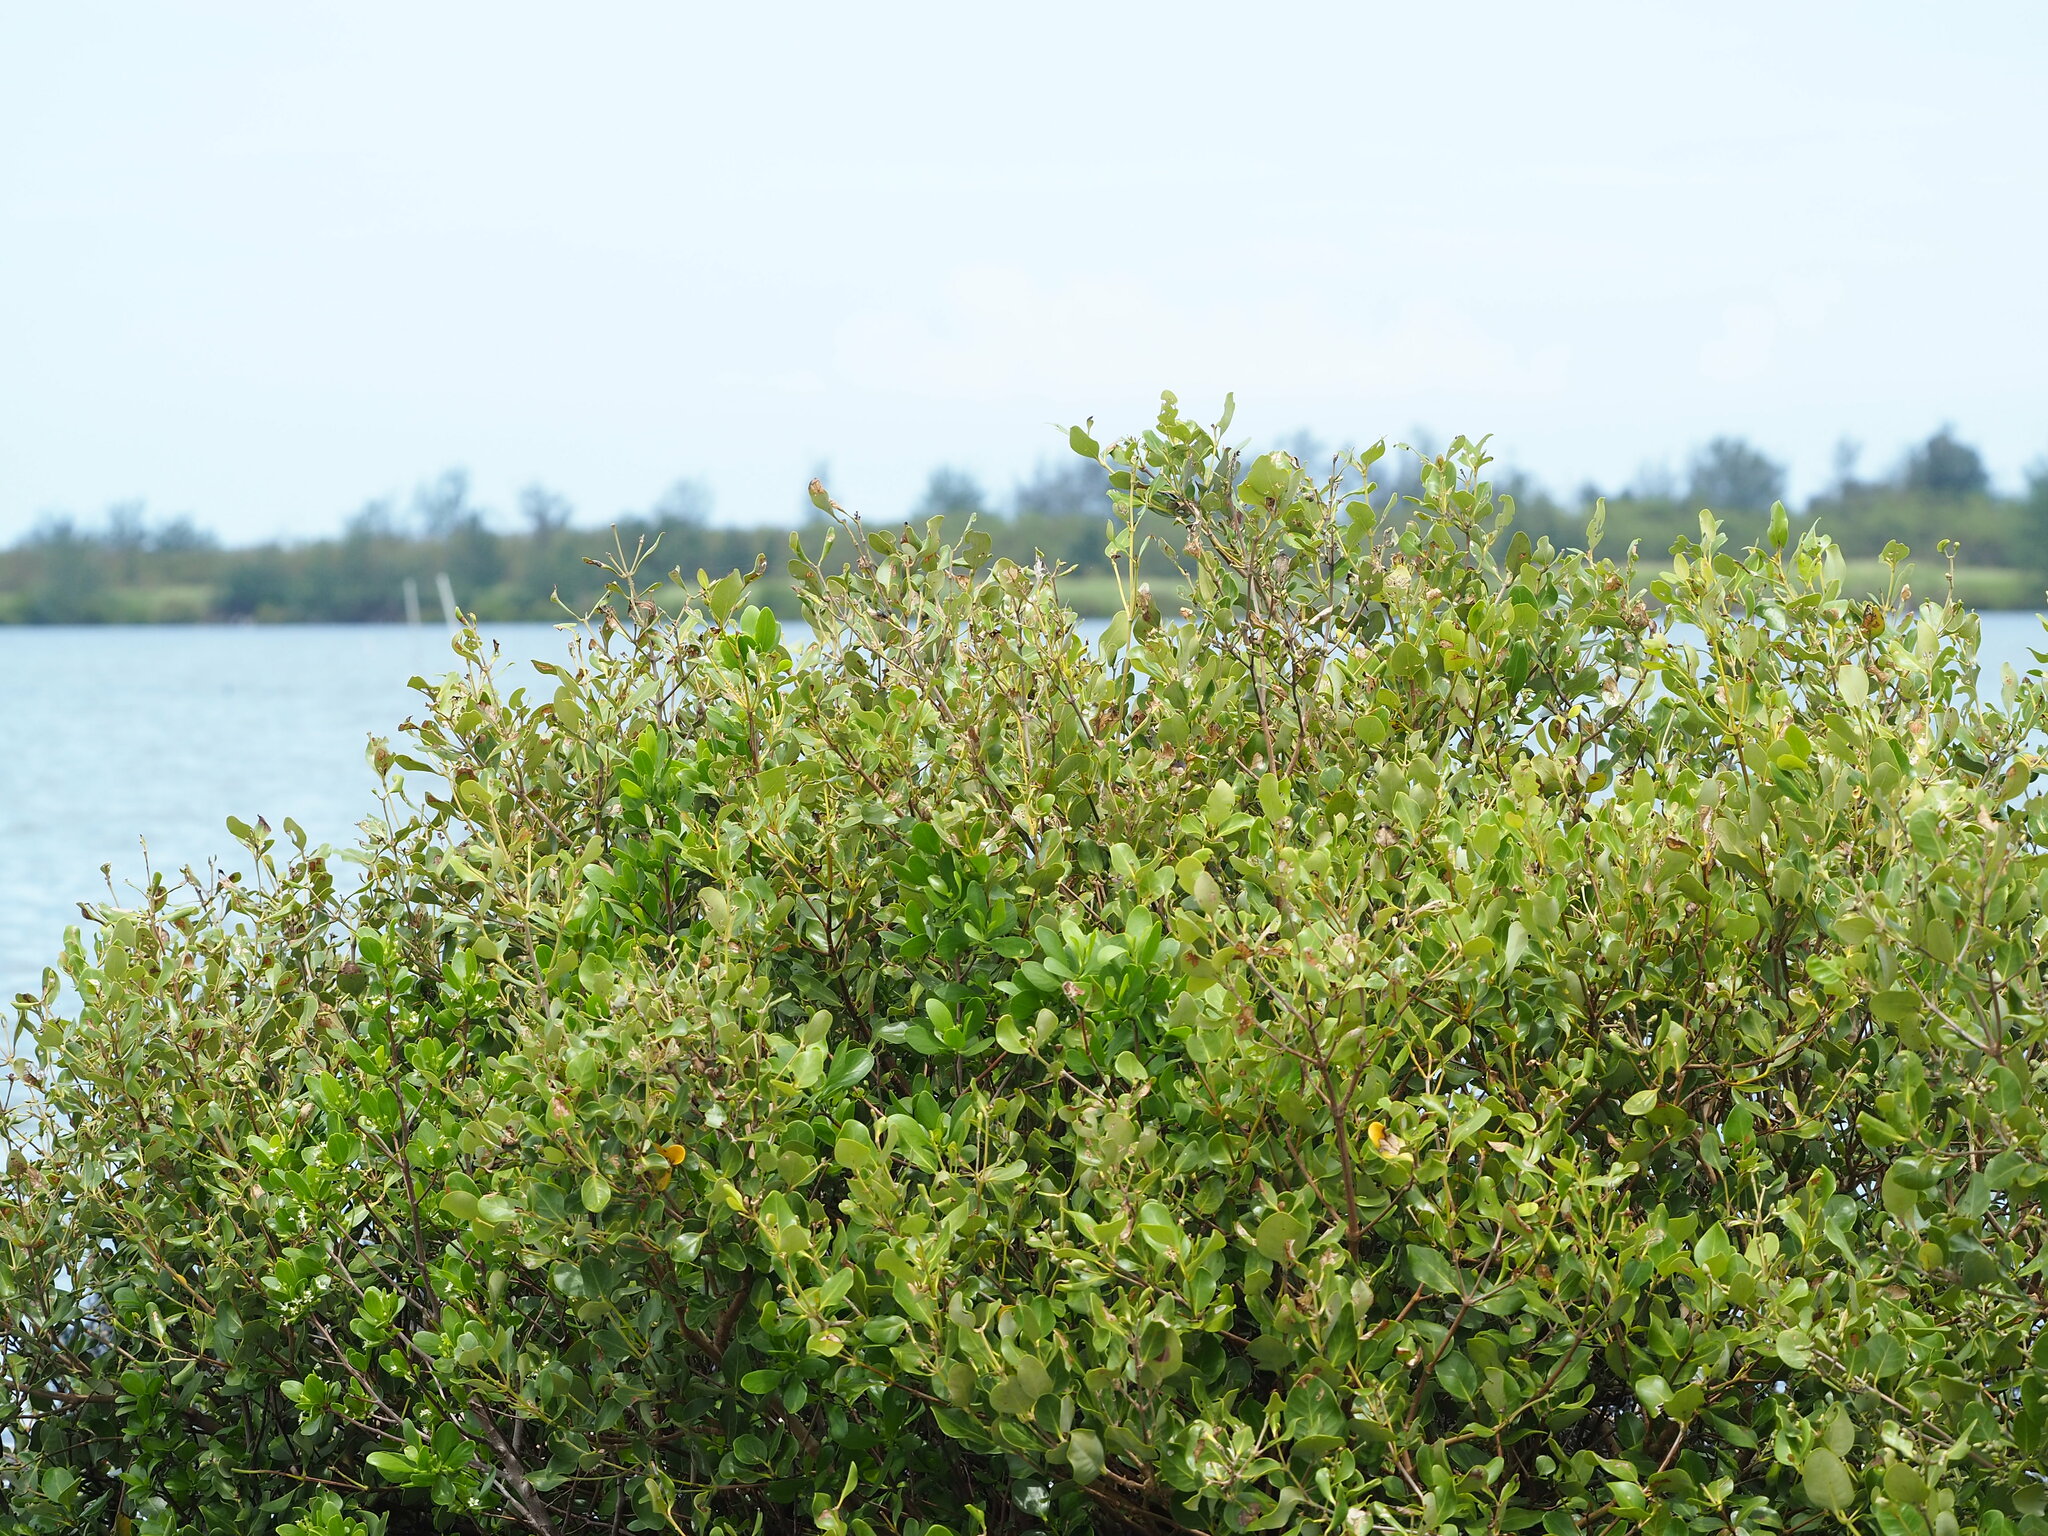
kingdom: Plantae
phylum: Tracheophyta
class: Magnoliopsida
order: Lamiales
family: Acanthaceae
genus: Avicennia
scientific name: Avicennia marina
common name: Gray mangrove
